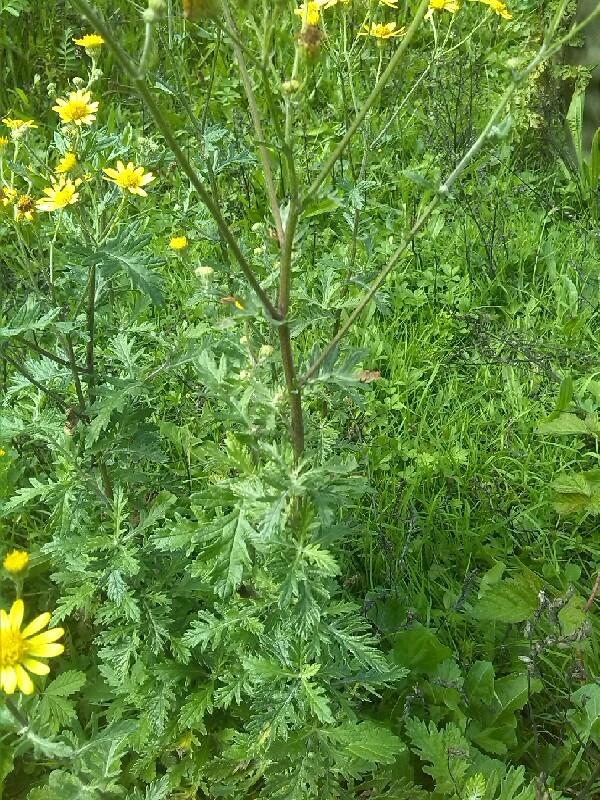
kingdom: Plantae
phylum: Tracheophyta
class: Magnoliopsida
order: Asterales
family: Asteraceae
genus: Jacobaea
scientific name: Jacobaea erucifolia
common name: Hoary ragwort
